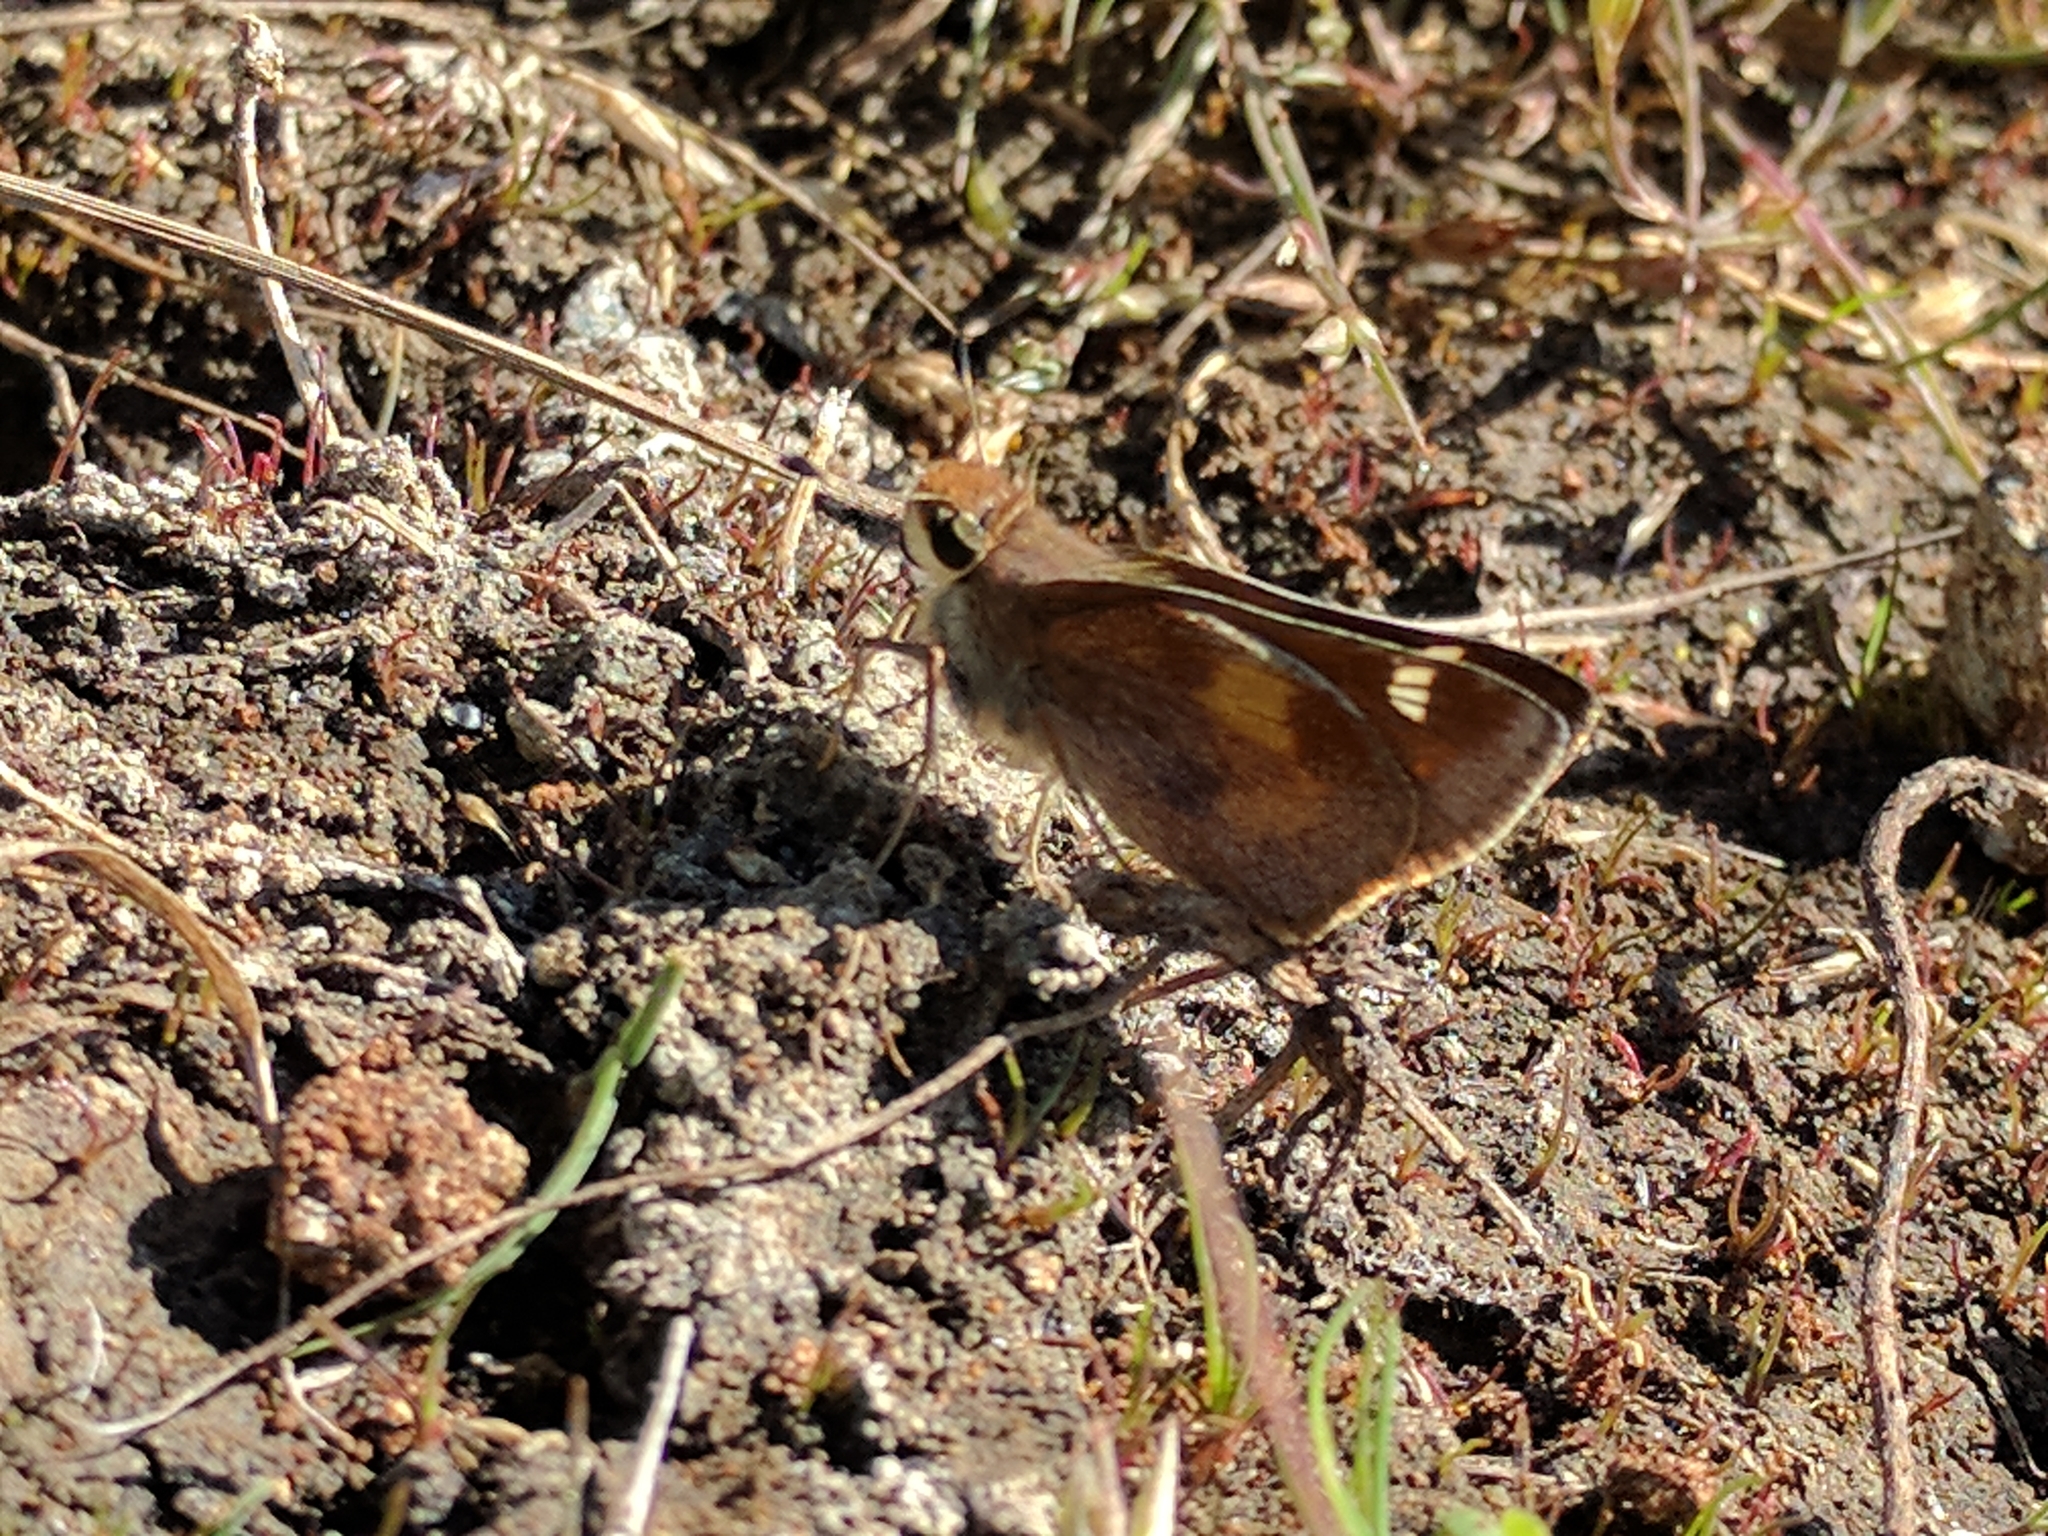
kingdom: Animalia
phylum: Arthropoda
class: Insecta
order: Lepidoptera
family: Hesperiidae
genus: Lon
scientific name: Lon melane
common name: Umber skipper
